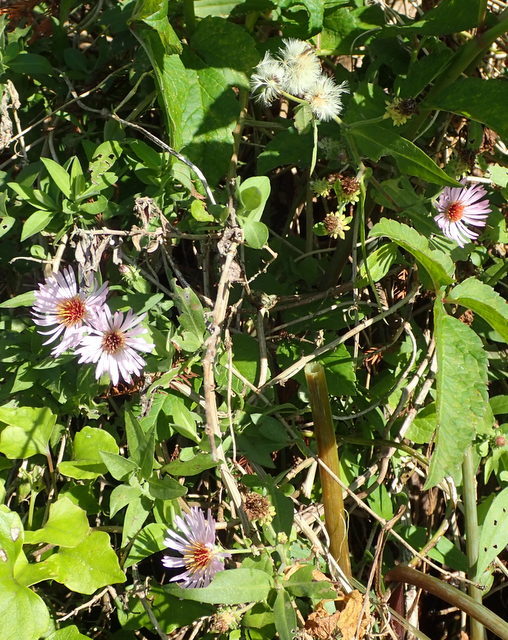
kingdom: Plantae
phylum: Tracheophyta
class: Magnoliopsida
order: Asterales
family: Asteraceae
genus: Ampelaster
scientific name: Ampelaster carolinianus
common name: Climbing aster
